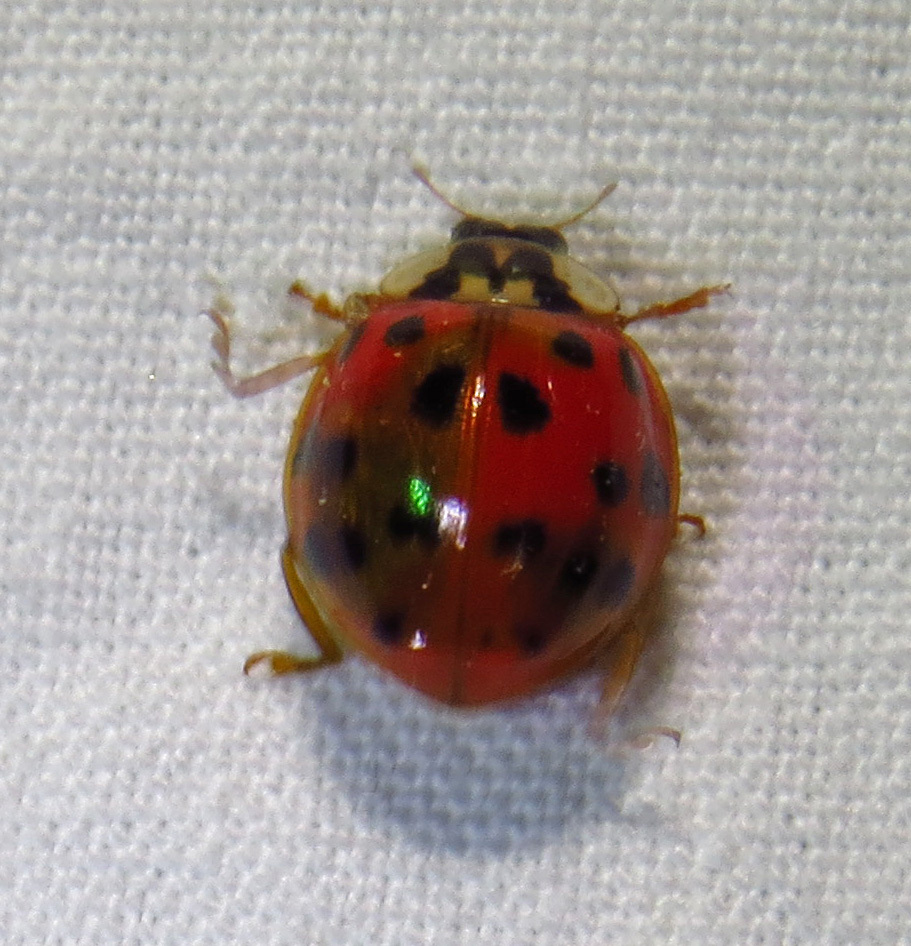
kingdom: Animalia
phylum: Arthropoda
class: Insecta
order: Coleoptera
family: Coccinellidae
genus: Harmonia
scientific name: Harmonia axyridis
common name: Harlequin ladybird
